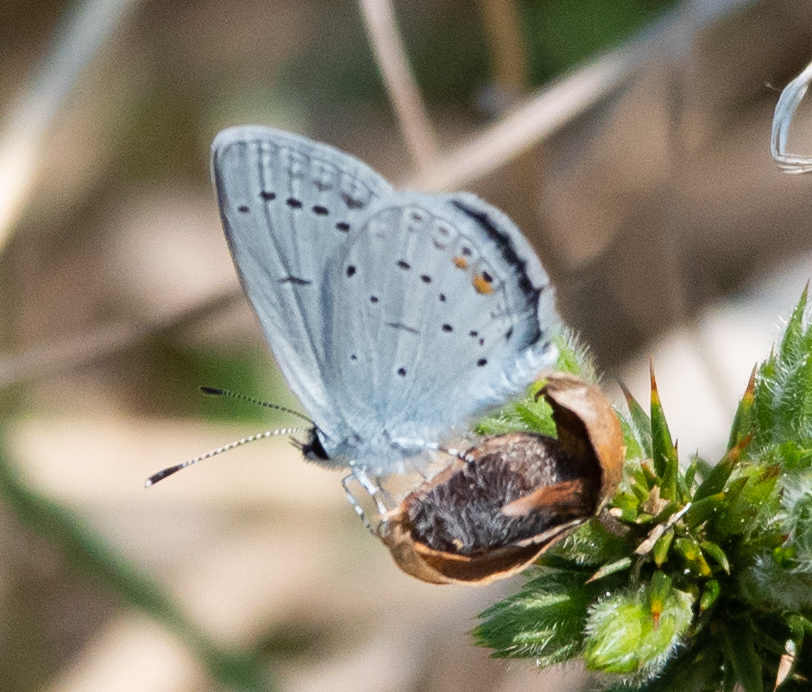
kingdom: Animalia
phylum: Arthropoda
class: Insecta
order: Lepidoptera
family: Lycaenidae
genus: Elkalyce
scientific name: Elkalyce argiades
